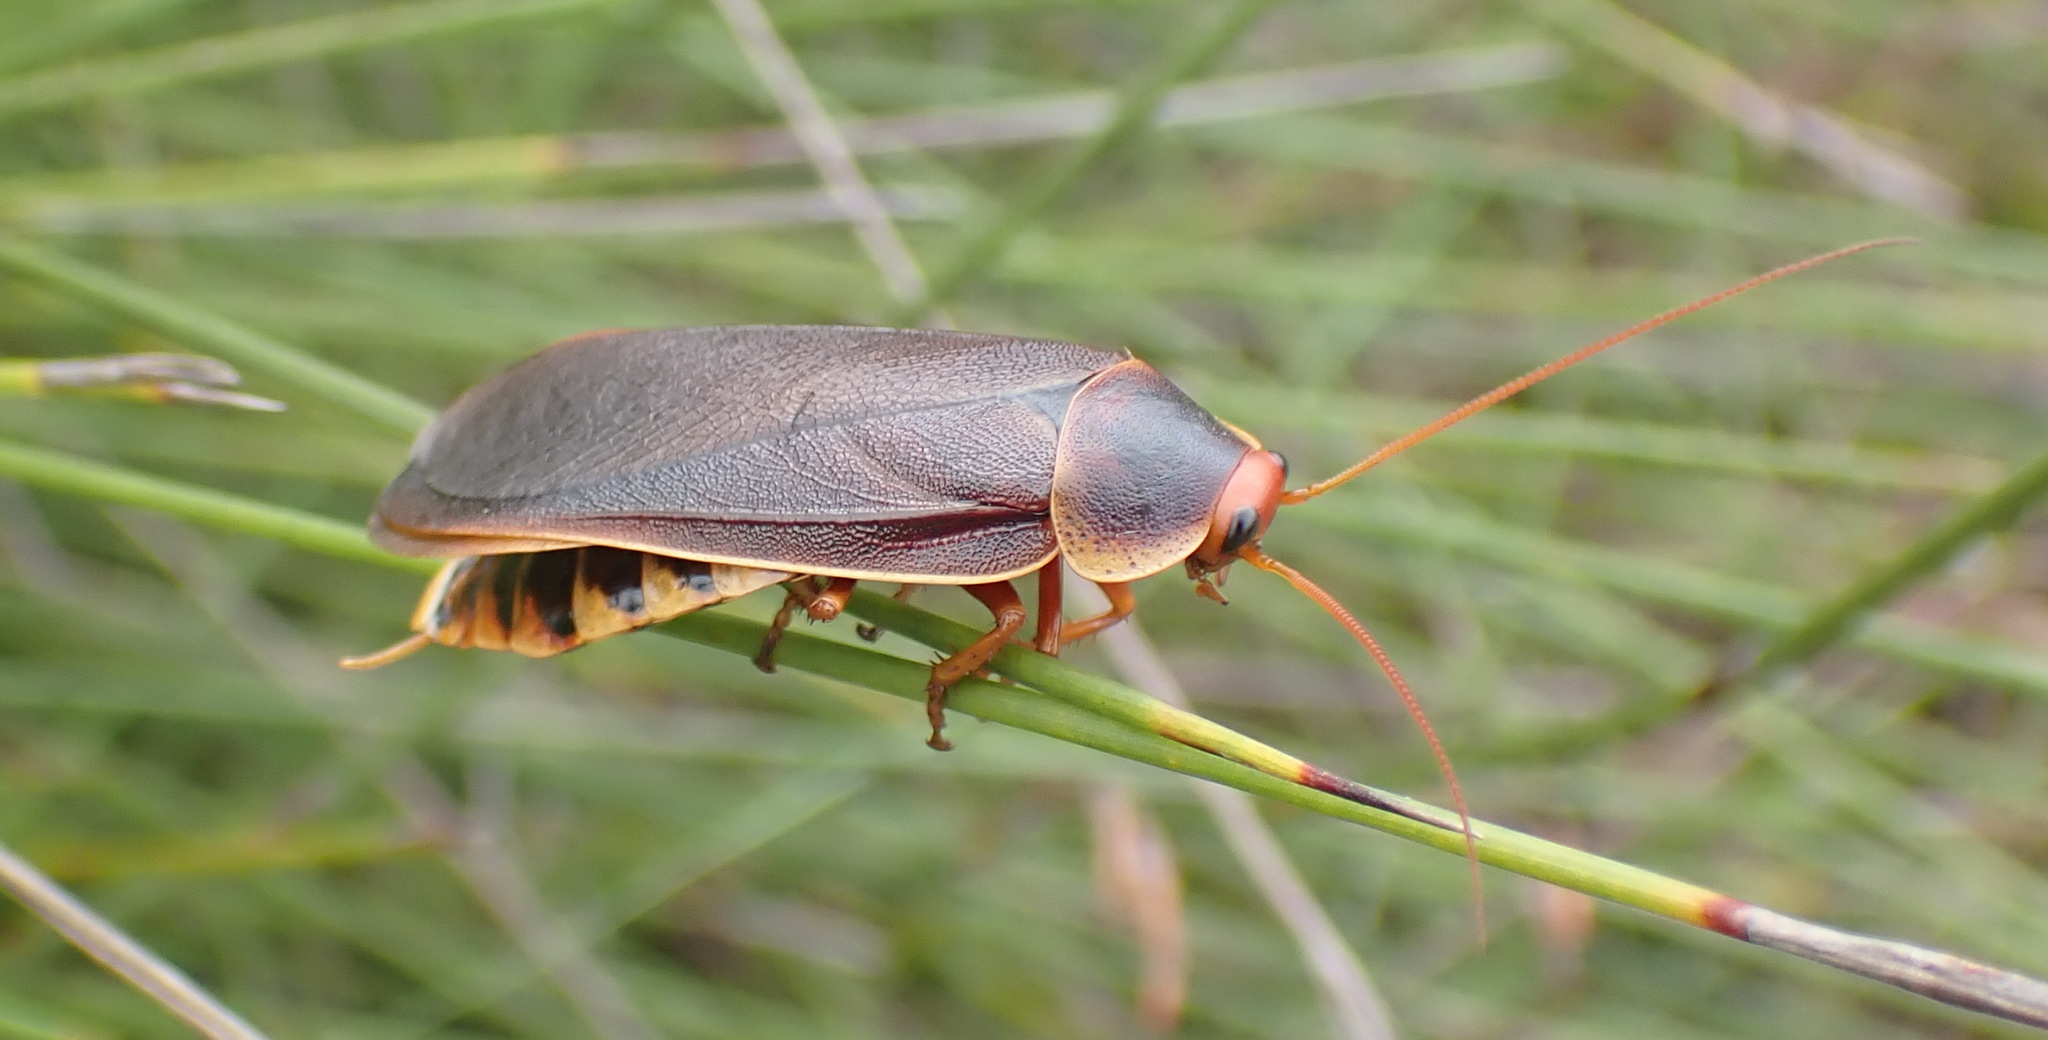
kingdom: Animalia
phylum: Arthropoda
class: Insecta
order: Blattodea
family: Blaberidae
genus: Aptera
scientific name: Aptera fusca
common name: Cape mountain cockroach
